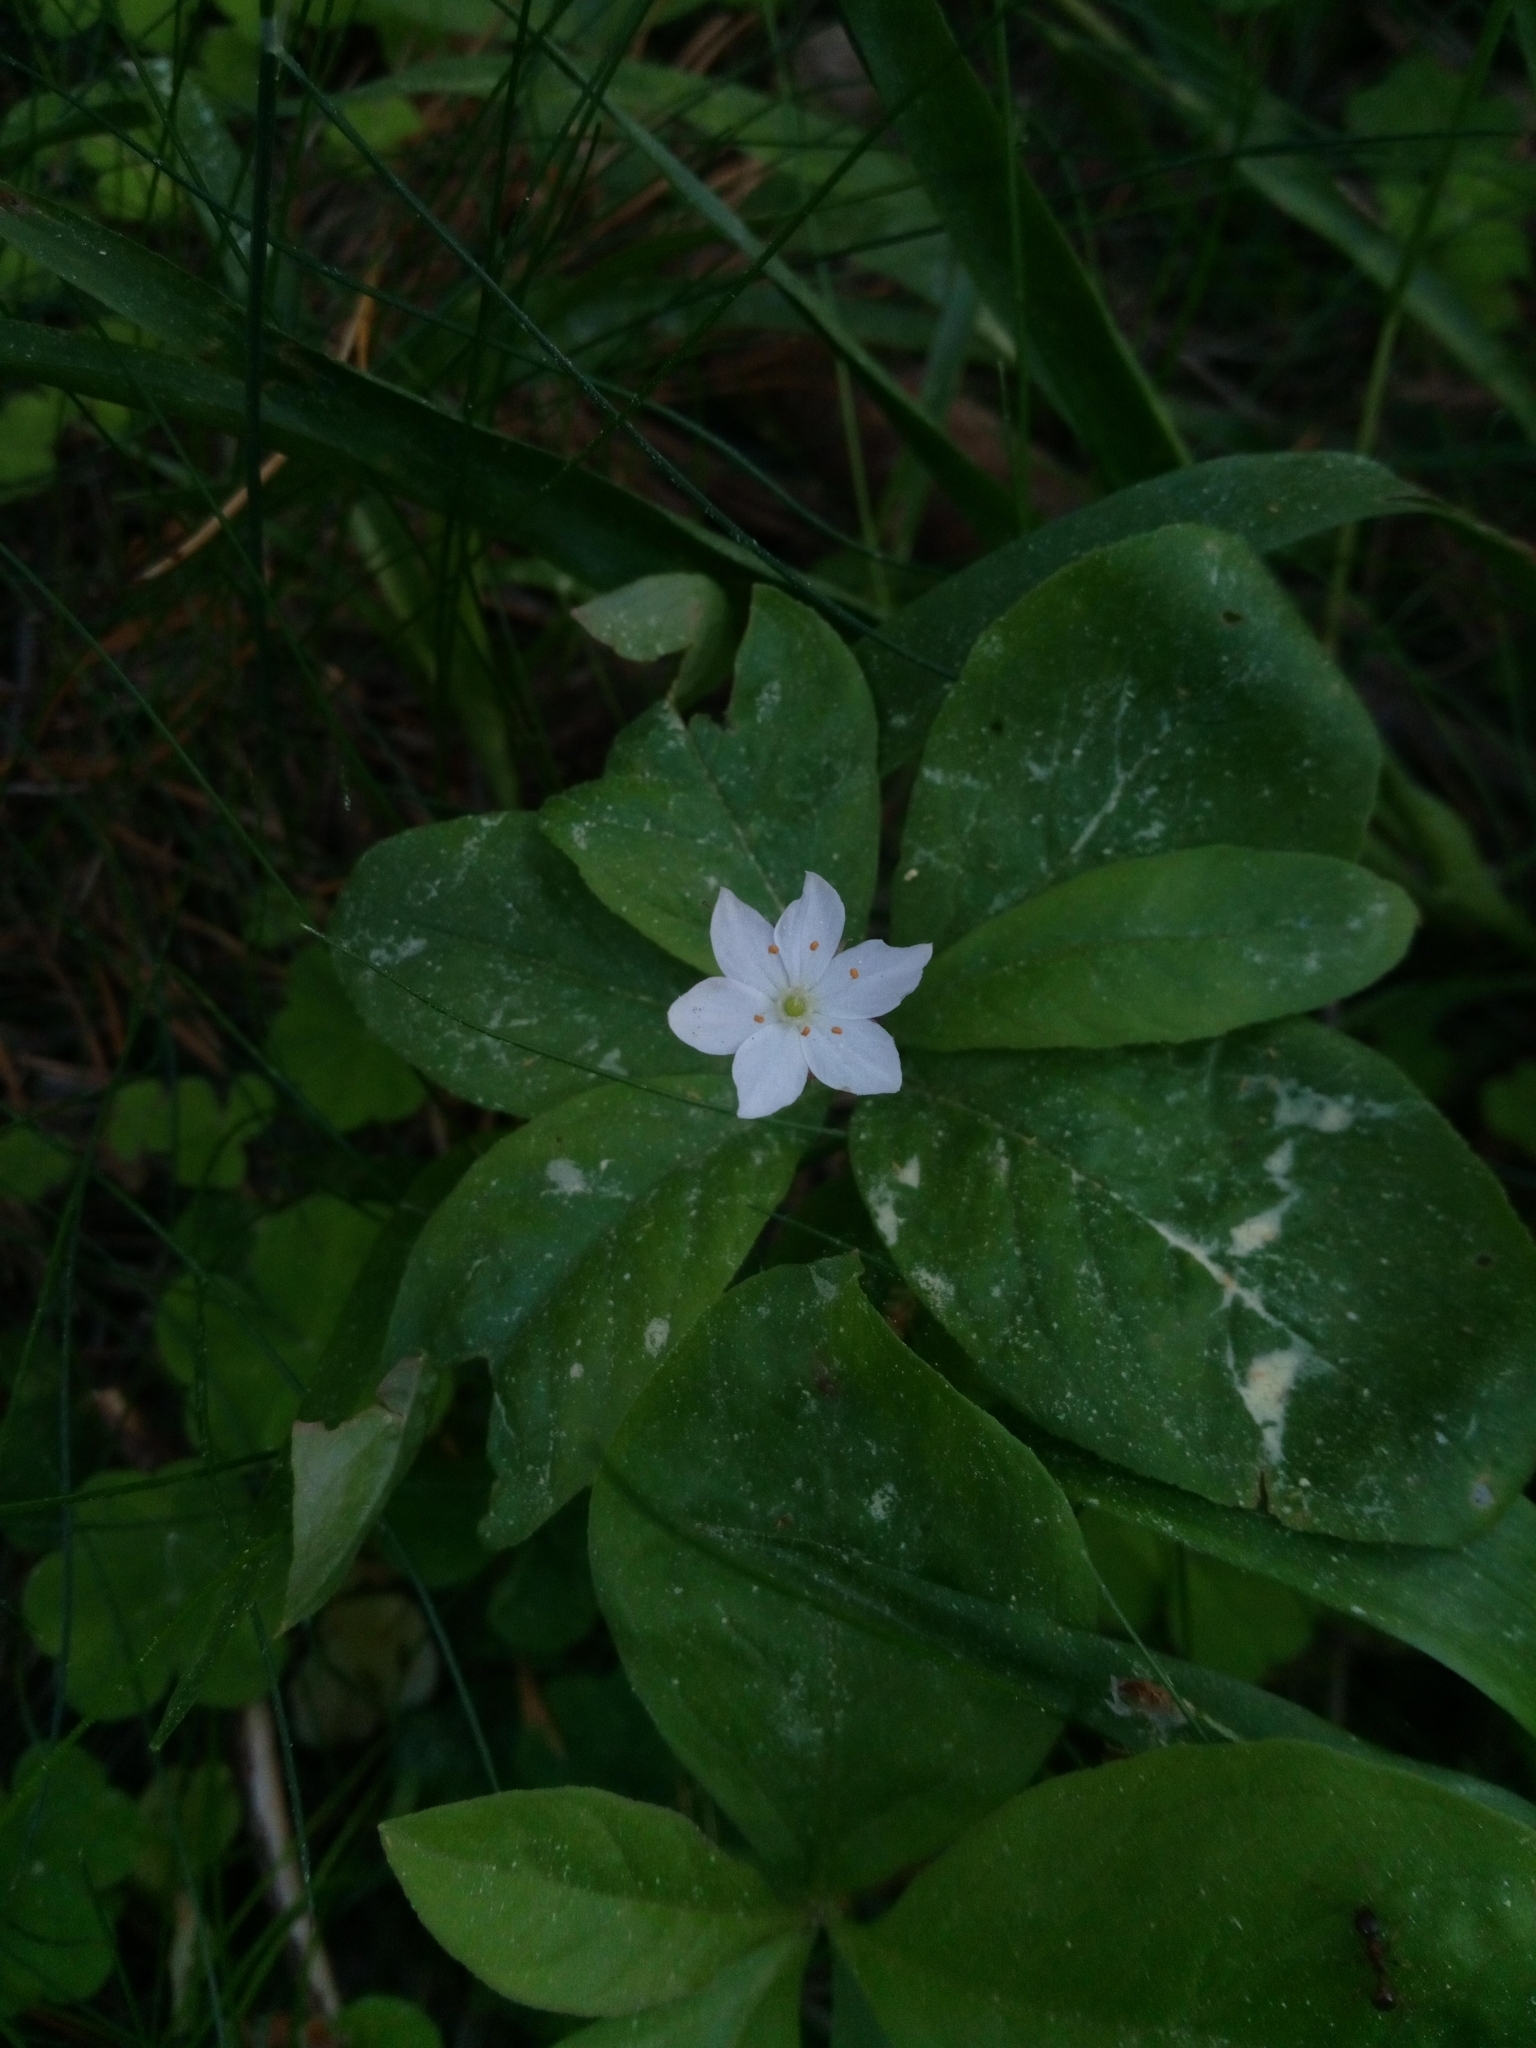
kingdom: Plantae
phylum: Tracheophyta
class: Magnoliopsida
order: Ericales
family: Primulaceae
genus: Lysimachia
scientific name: Lysimachia europaea
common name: Arctic starflower
